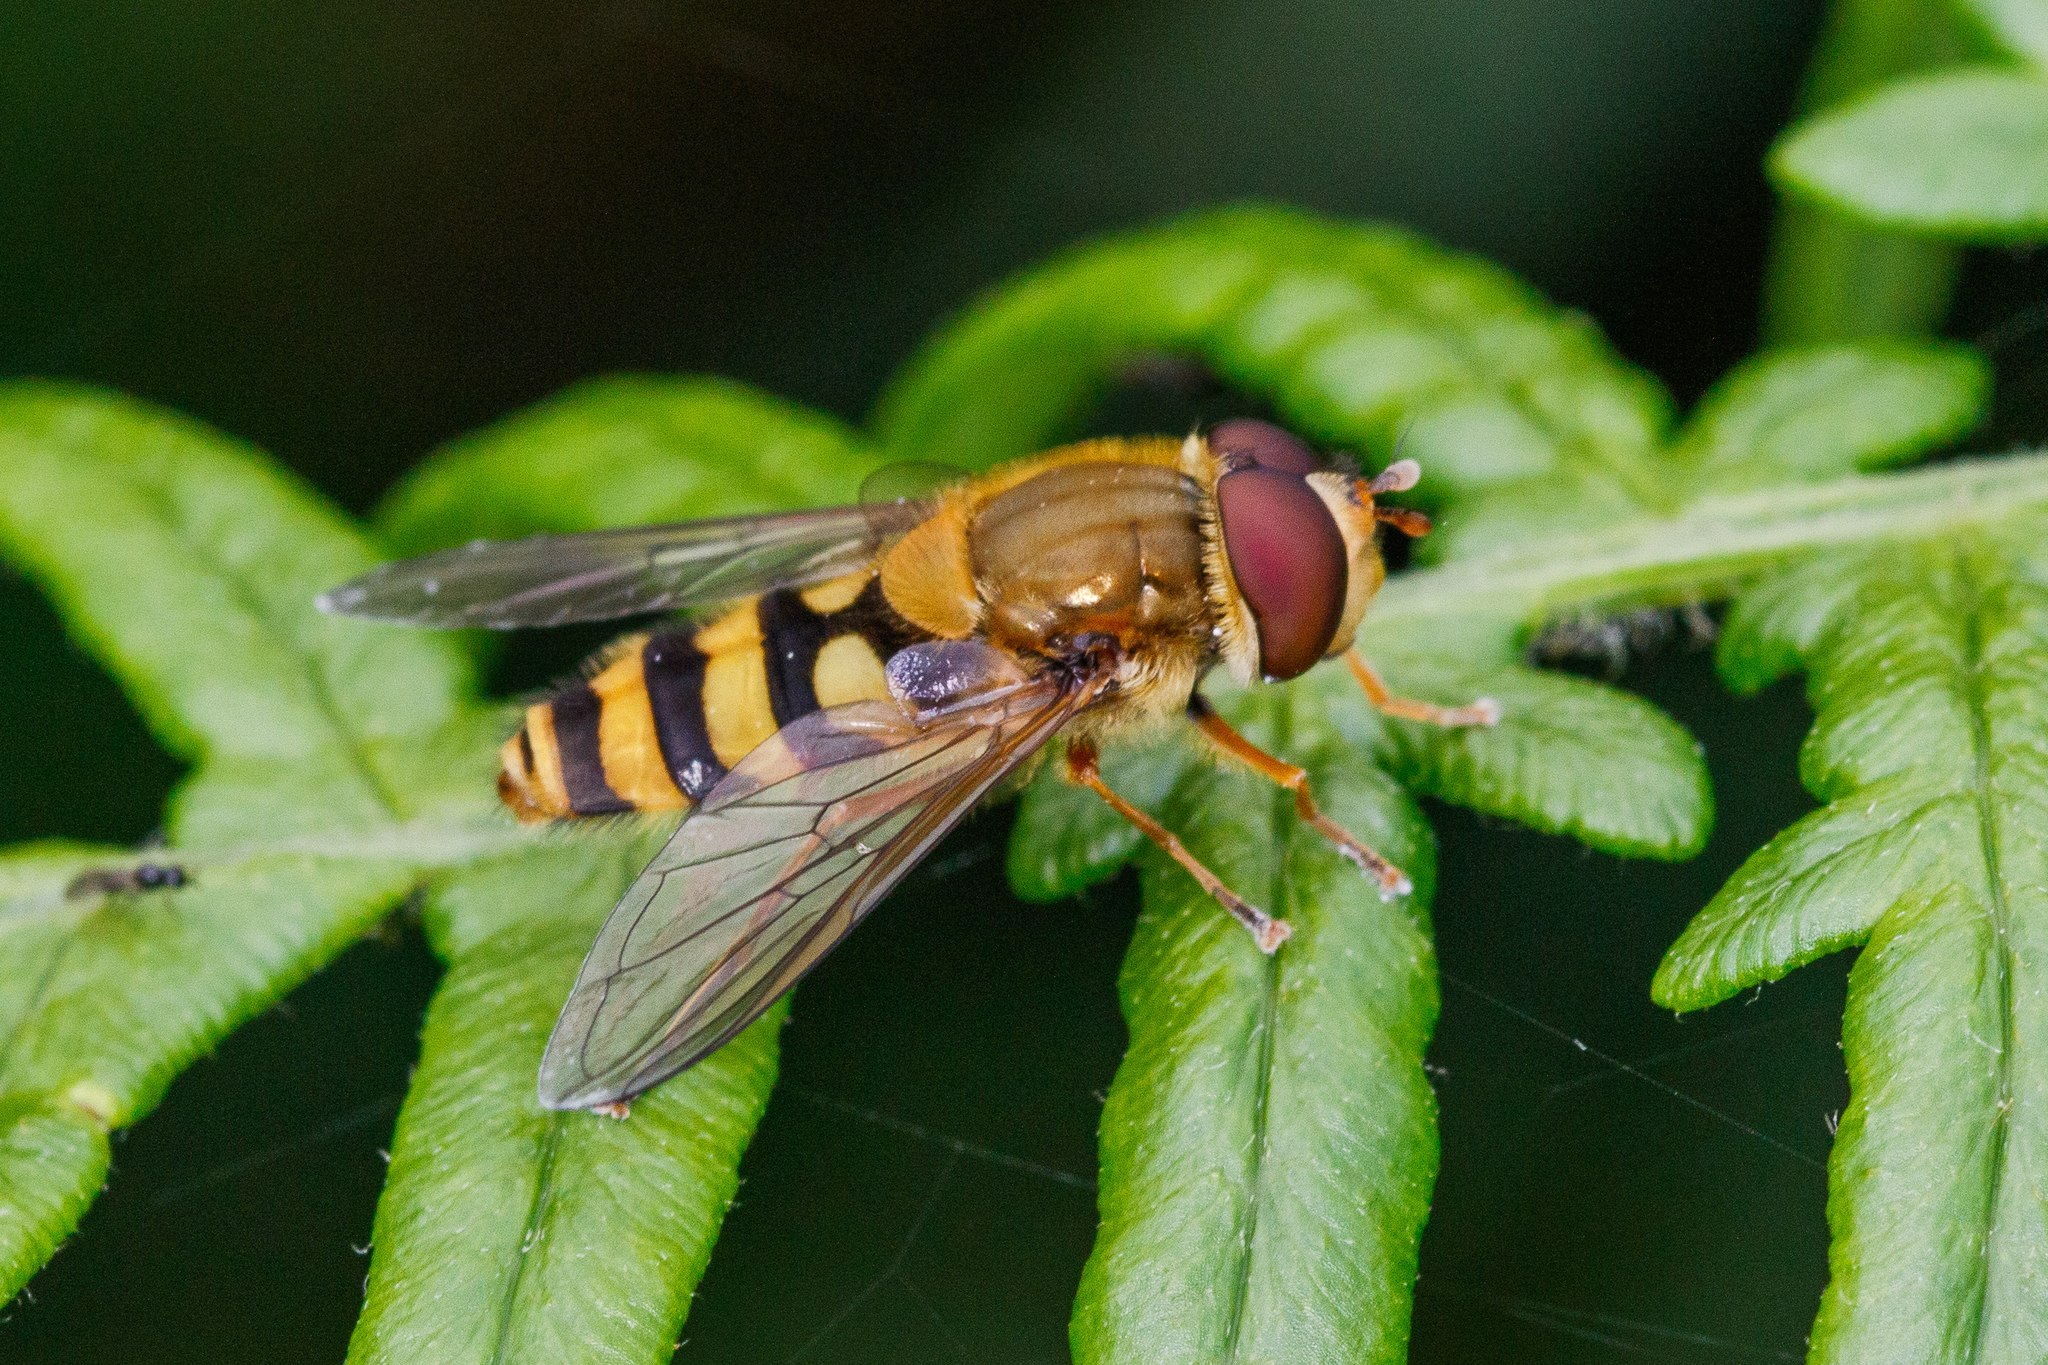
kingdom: Animalia
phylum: Arthropoda
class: Insecta
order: Diptera
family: Syrphidae
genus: Syrphus
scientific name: Syrphus
